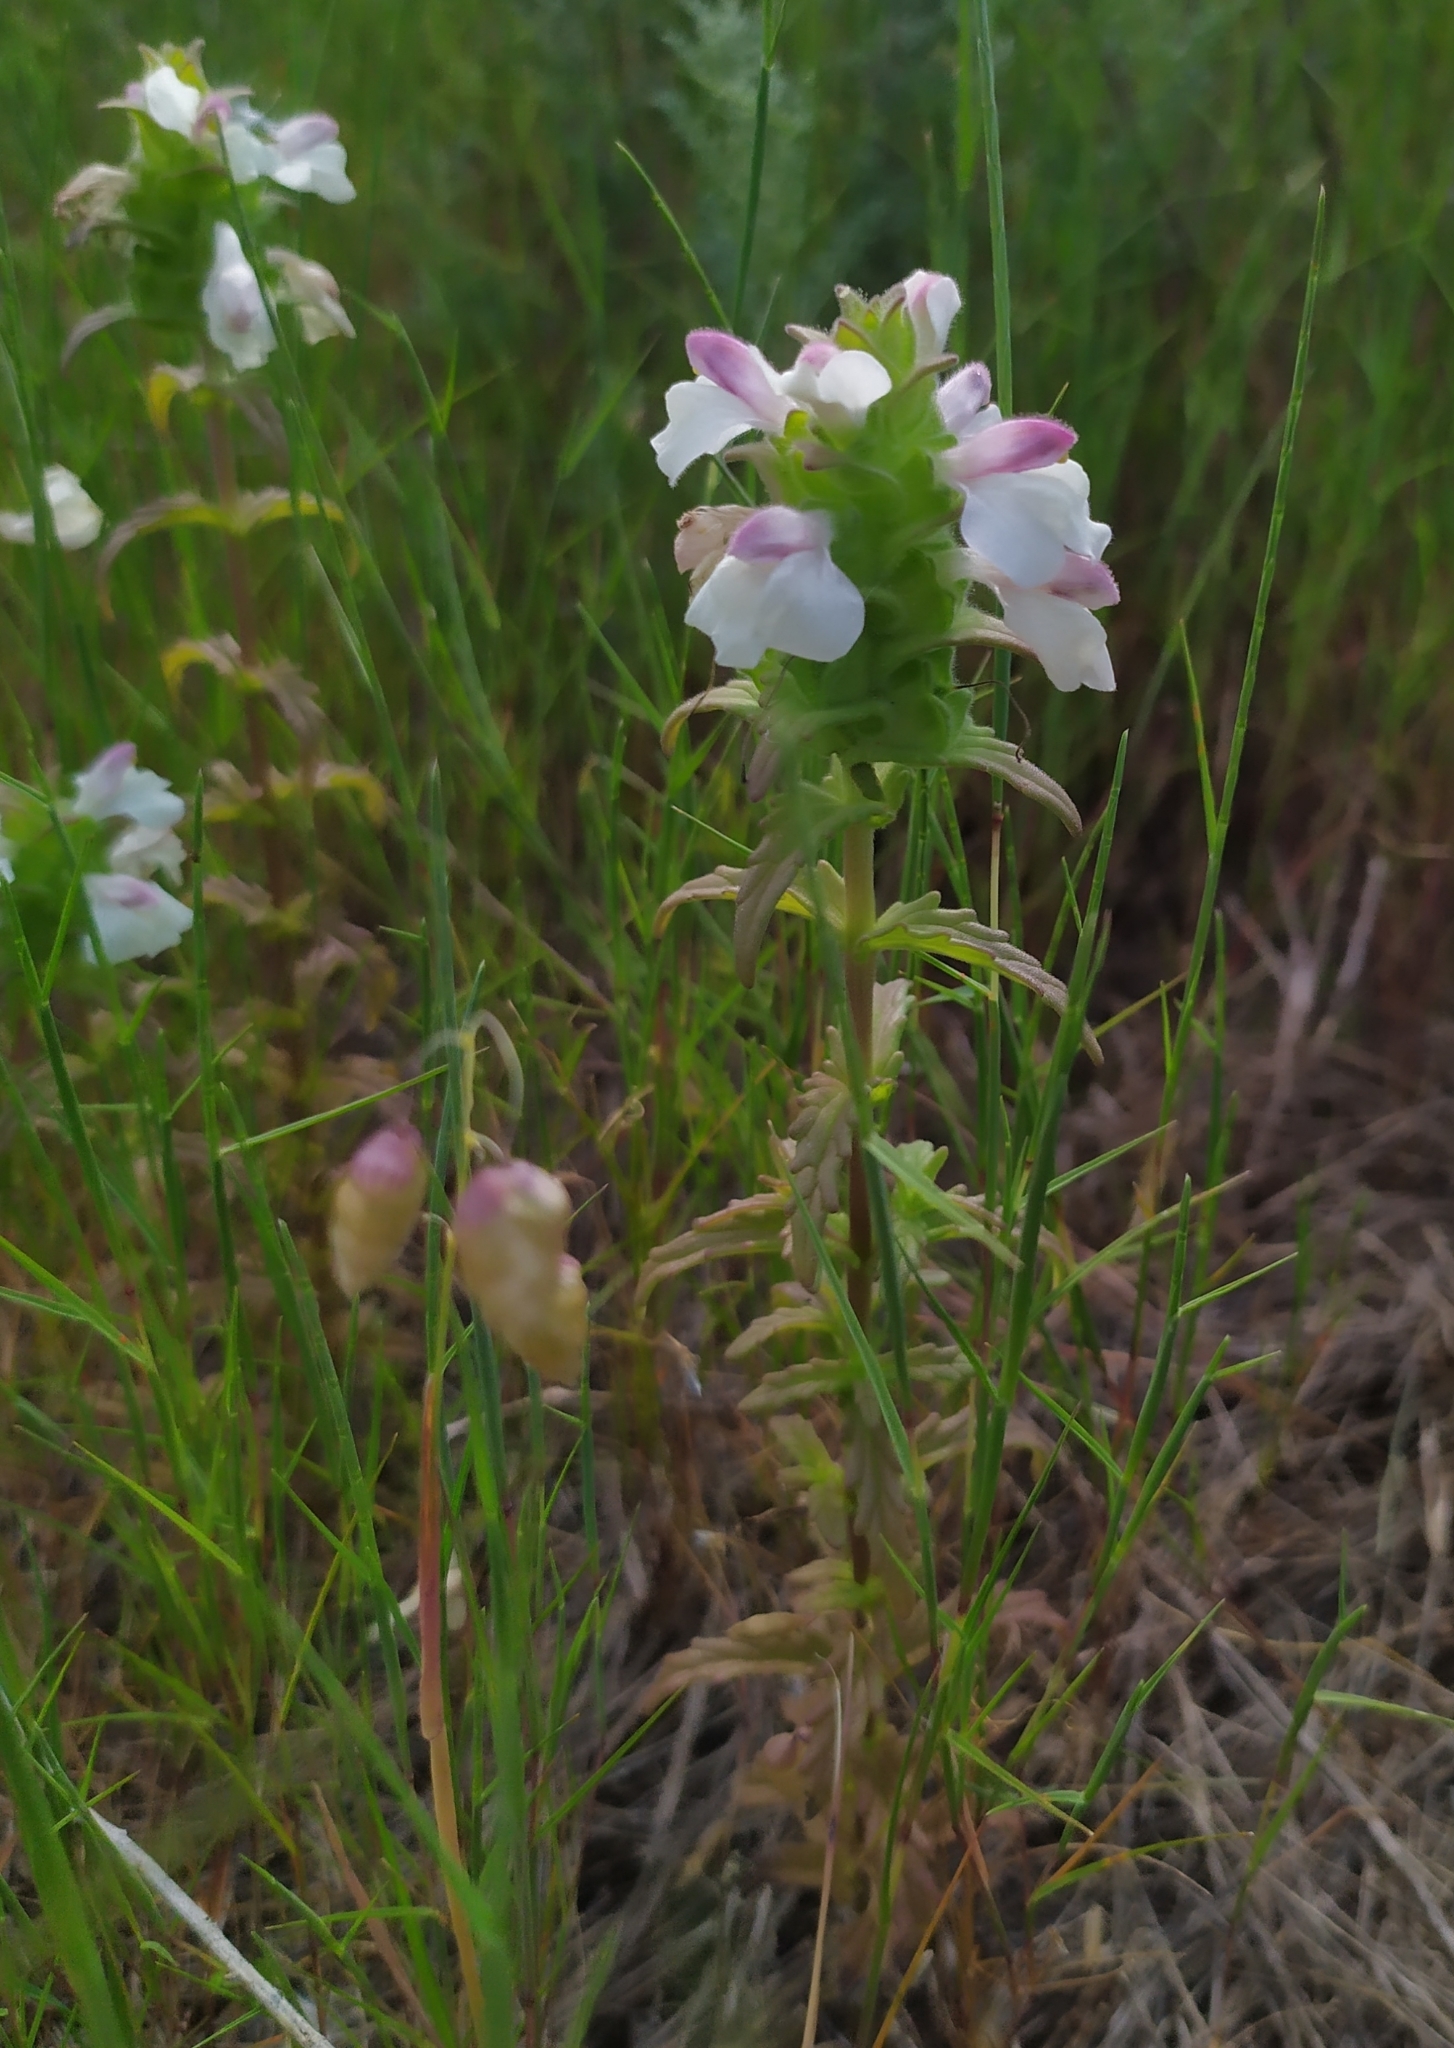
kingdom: Plantae
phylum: Tracheophyta
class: Magnoliopsida
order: Lamiales
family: Orobanchaceae
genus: Bellardia
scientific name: Bellardia trixago
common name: Mediterranean lineseed
